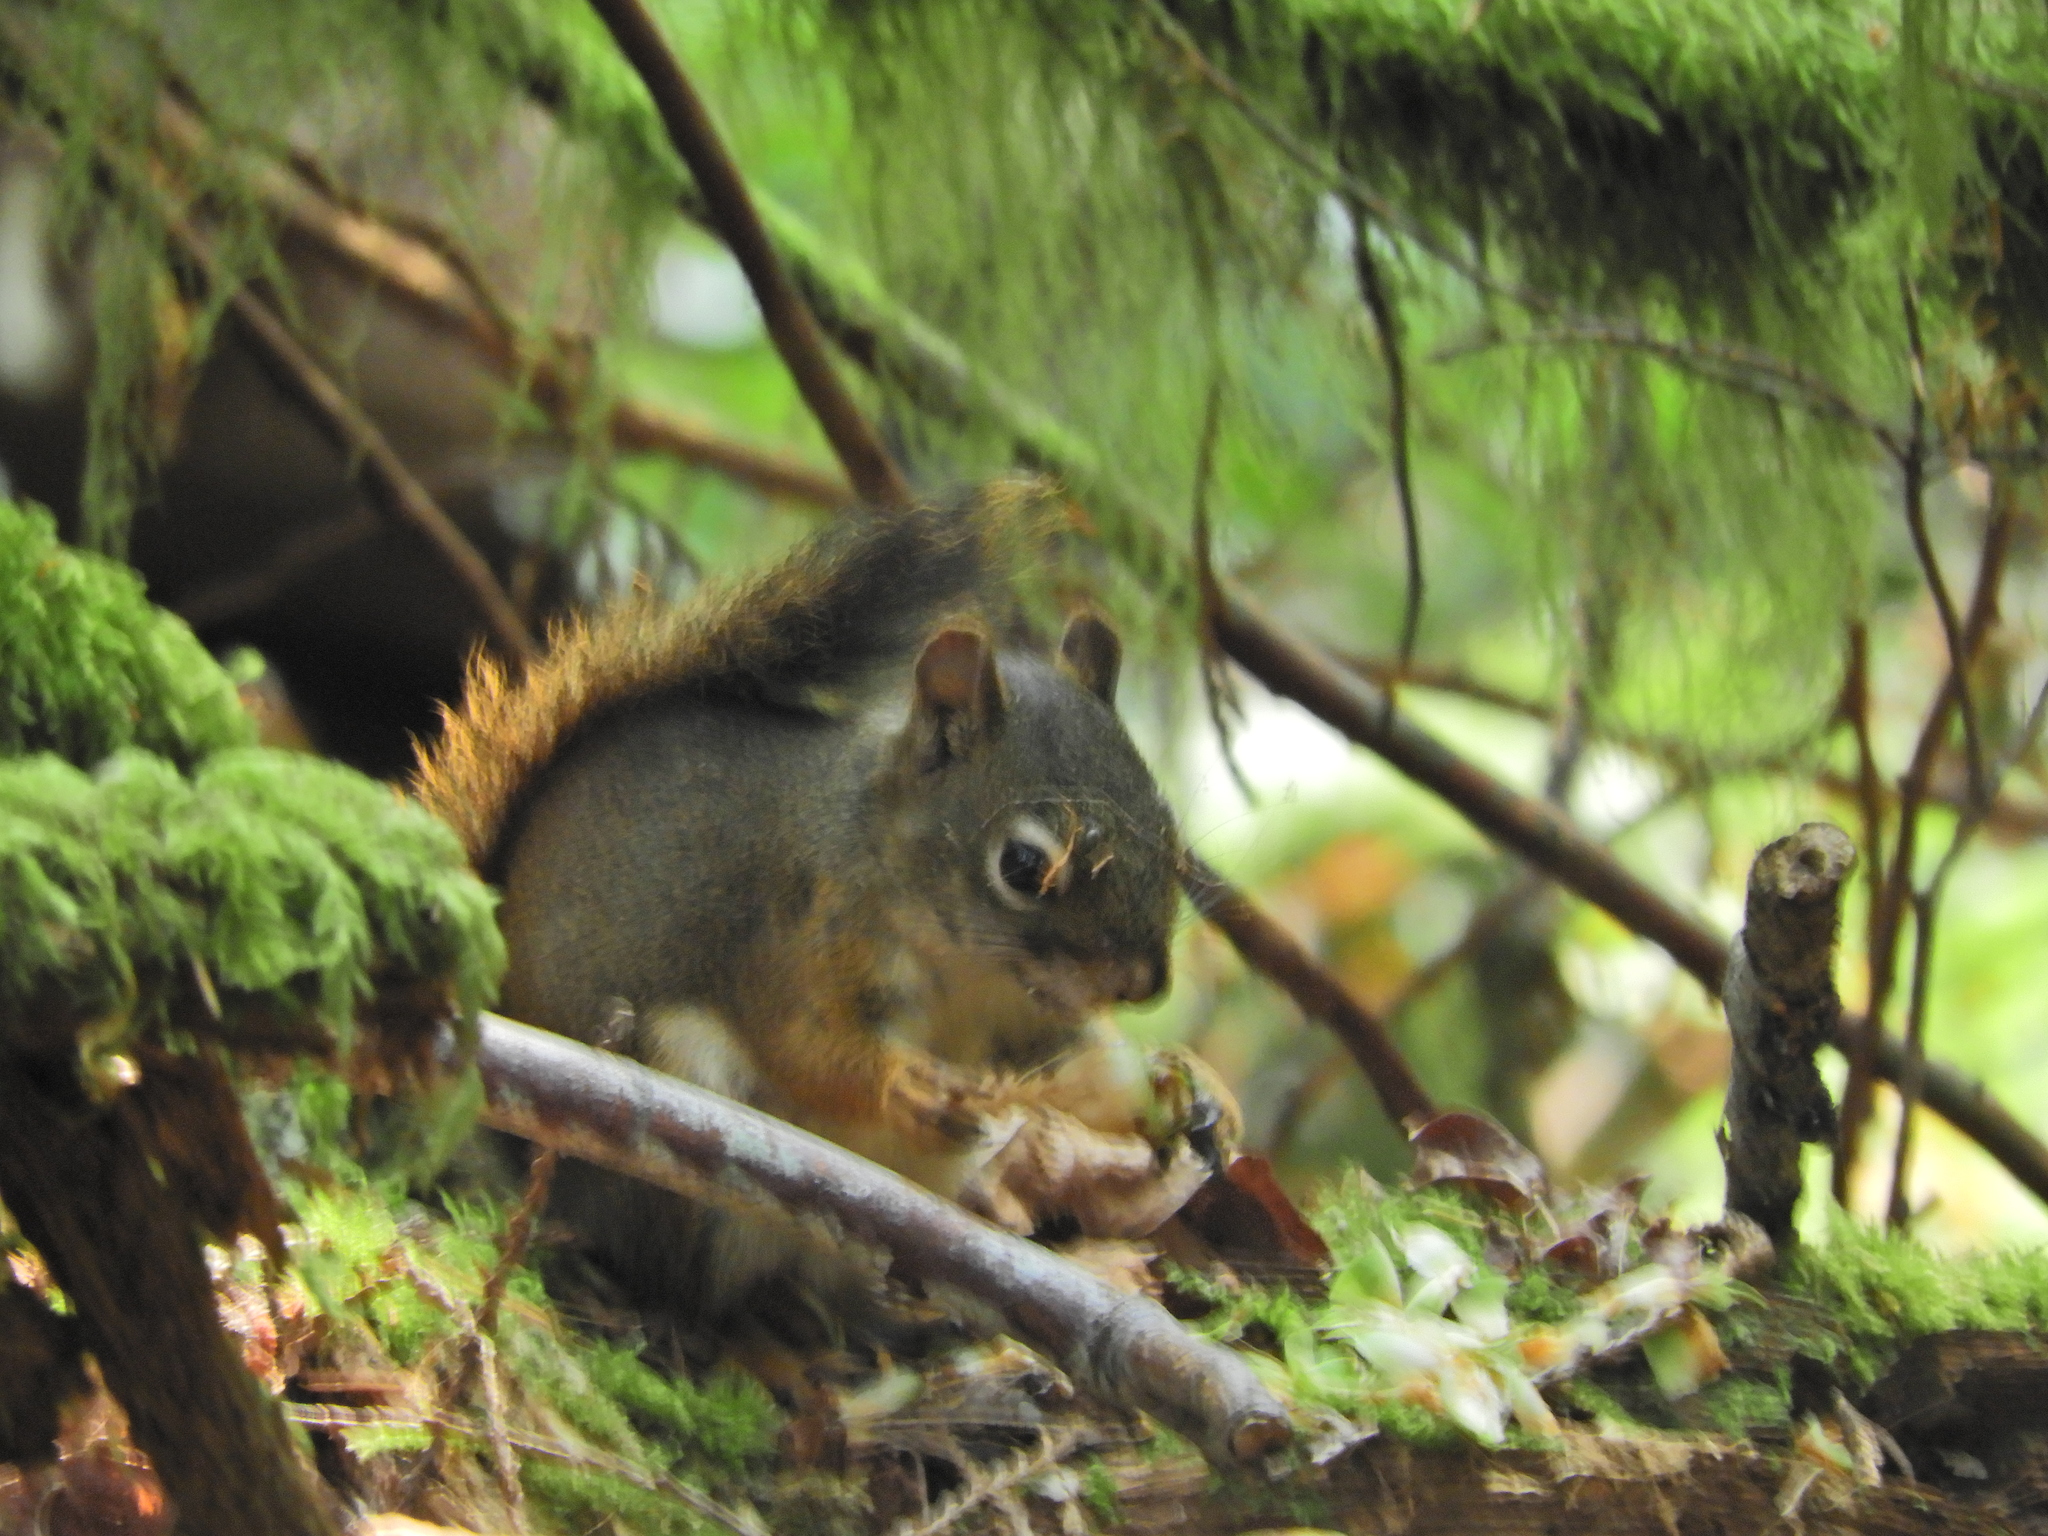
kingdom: Animalia
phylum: Chordata
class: Mammalia
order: Rodentia
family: Sciuridae
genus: Tamiasciurus
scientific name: Tamiasciurus hudsonicus
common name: Red squirrel
